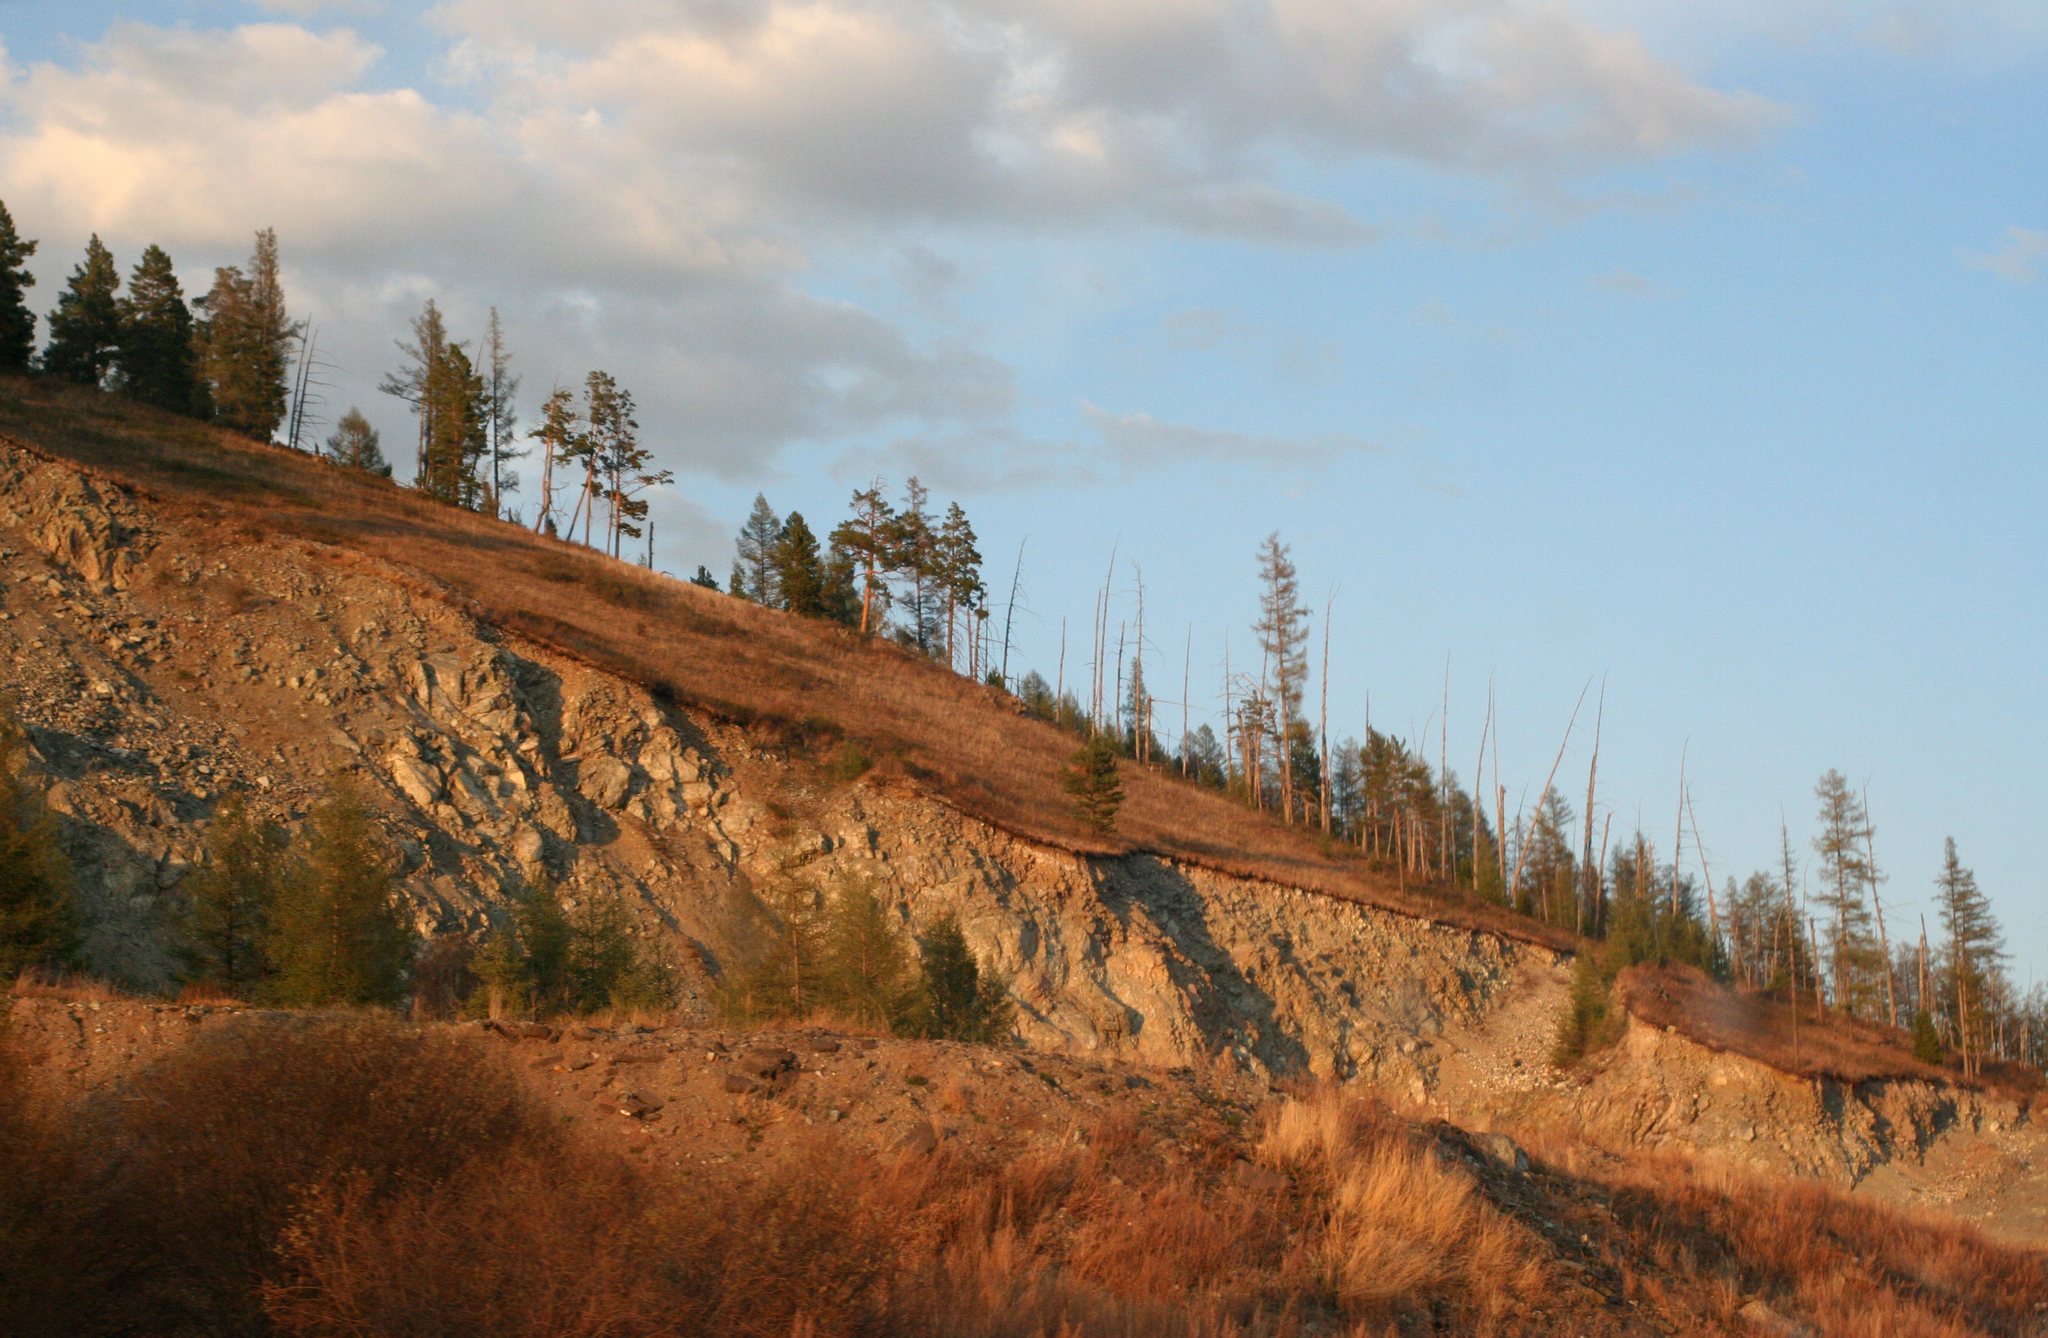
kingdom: Plantae
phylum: Tracheophyta
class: Pinopsida
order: Pinales
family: Pinaceae
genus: Pinus
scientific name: Pinus sylvestris
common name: Scots pine
